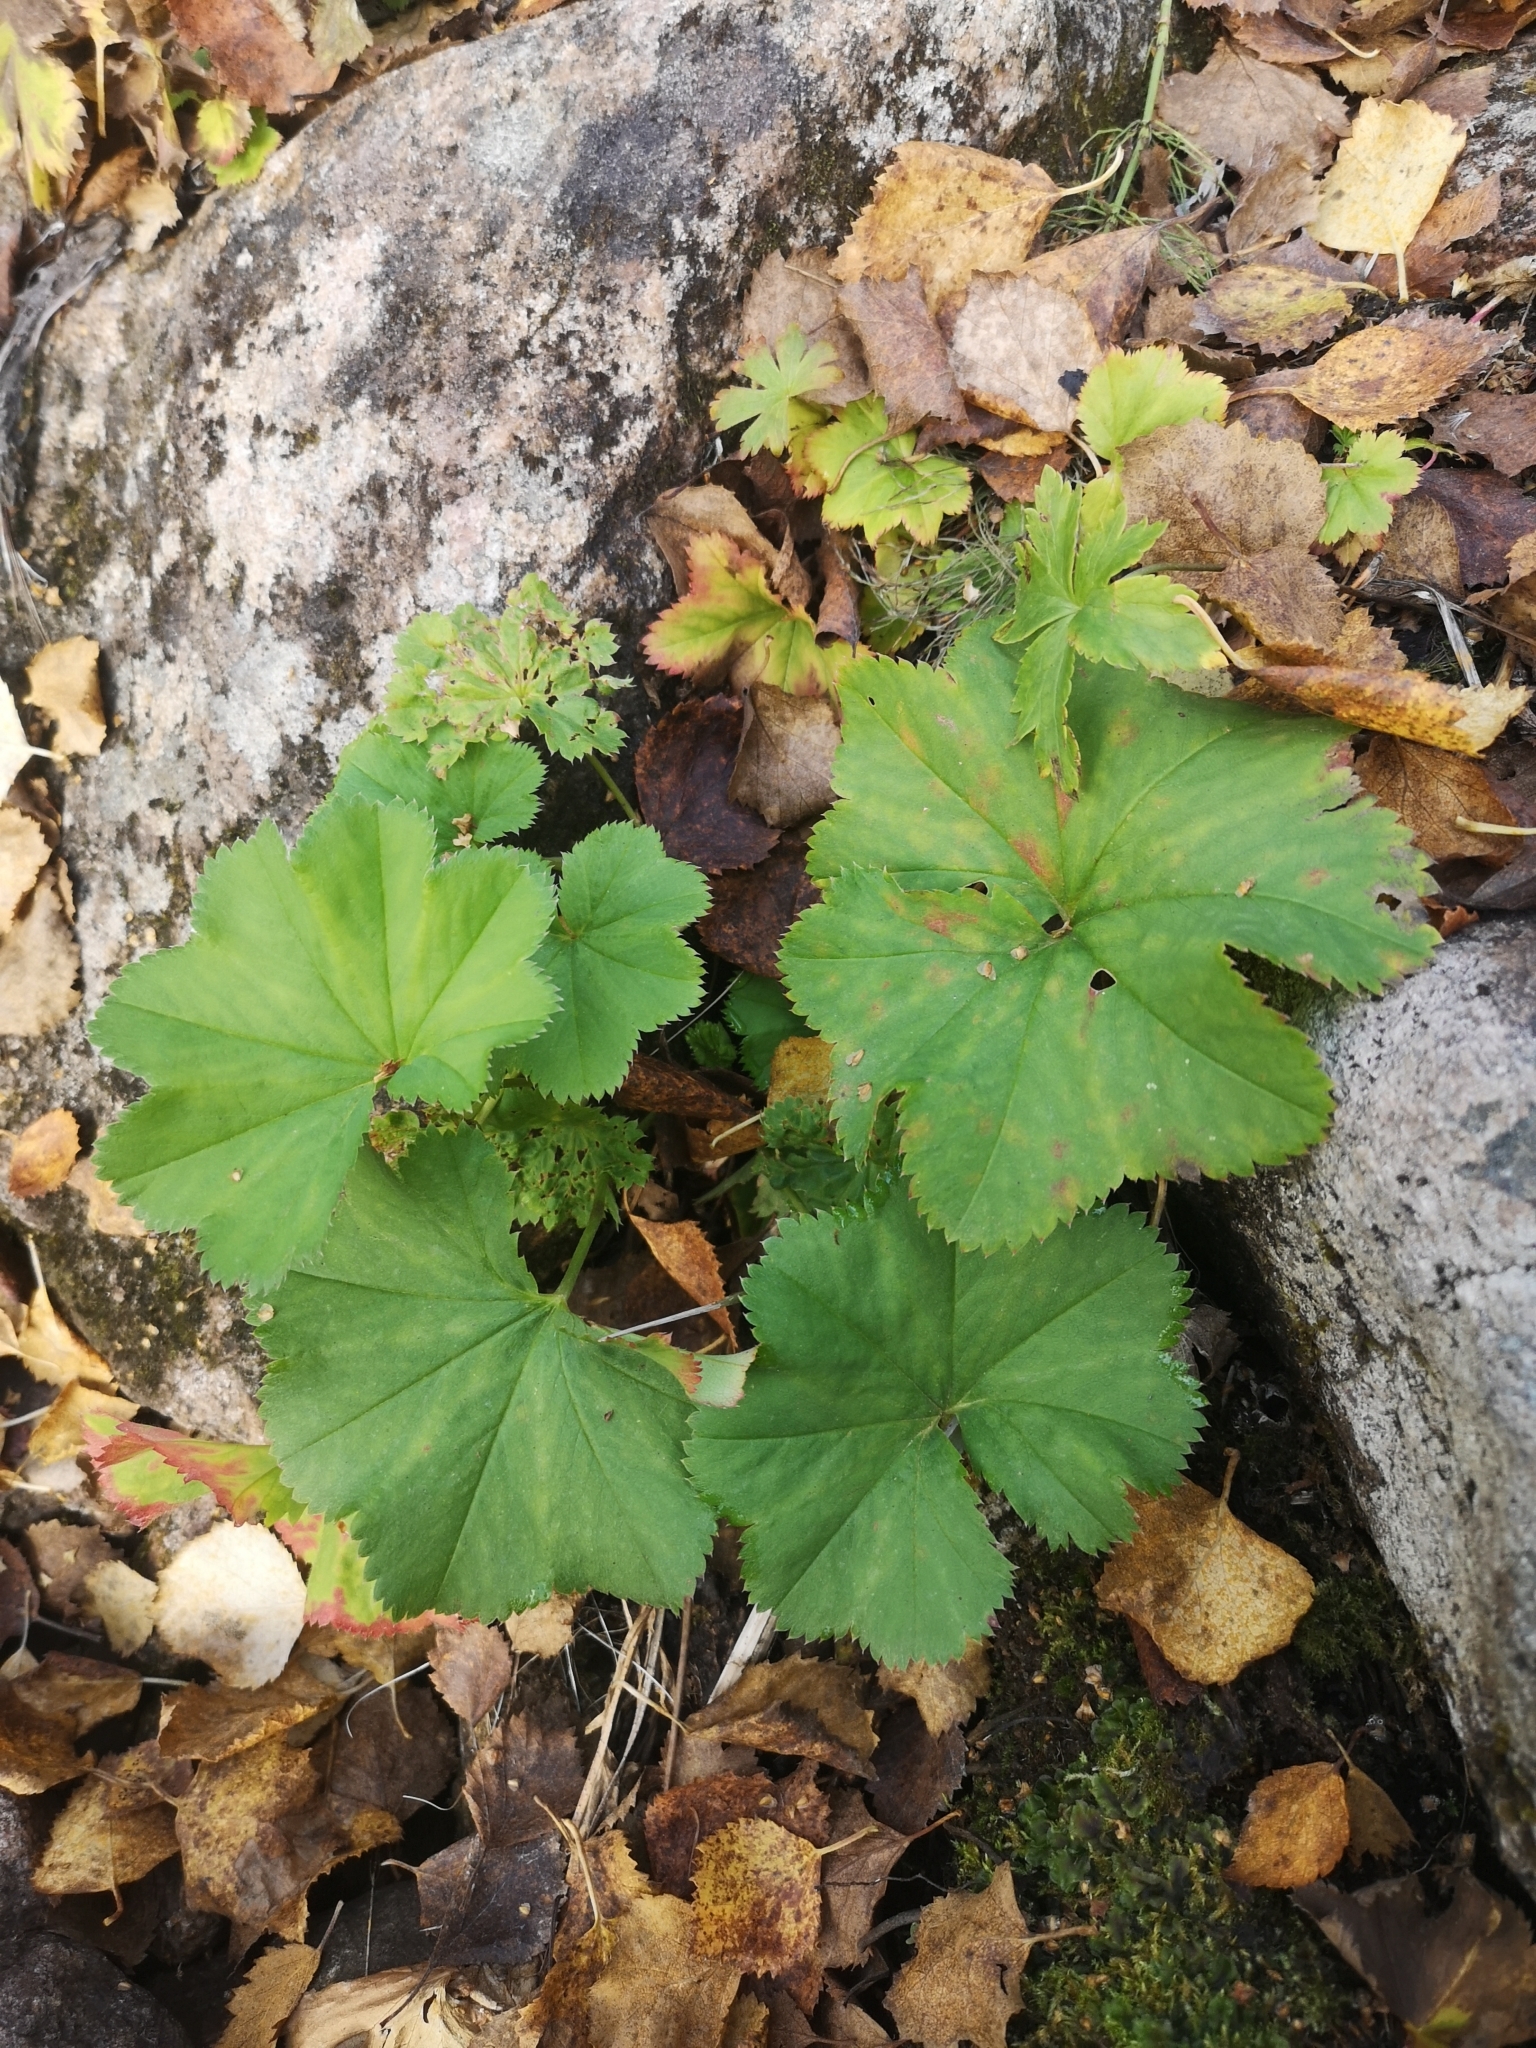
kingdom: Plantae
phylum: Tracheophyta
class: Magnoliopsida
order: Rosales
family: Rosaceae
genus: Alchemilla
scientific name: Alchemilla vulgaris
